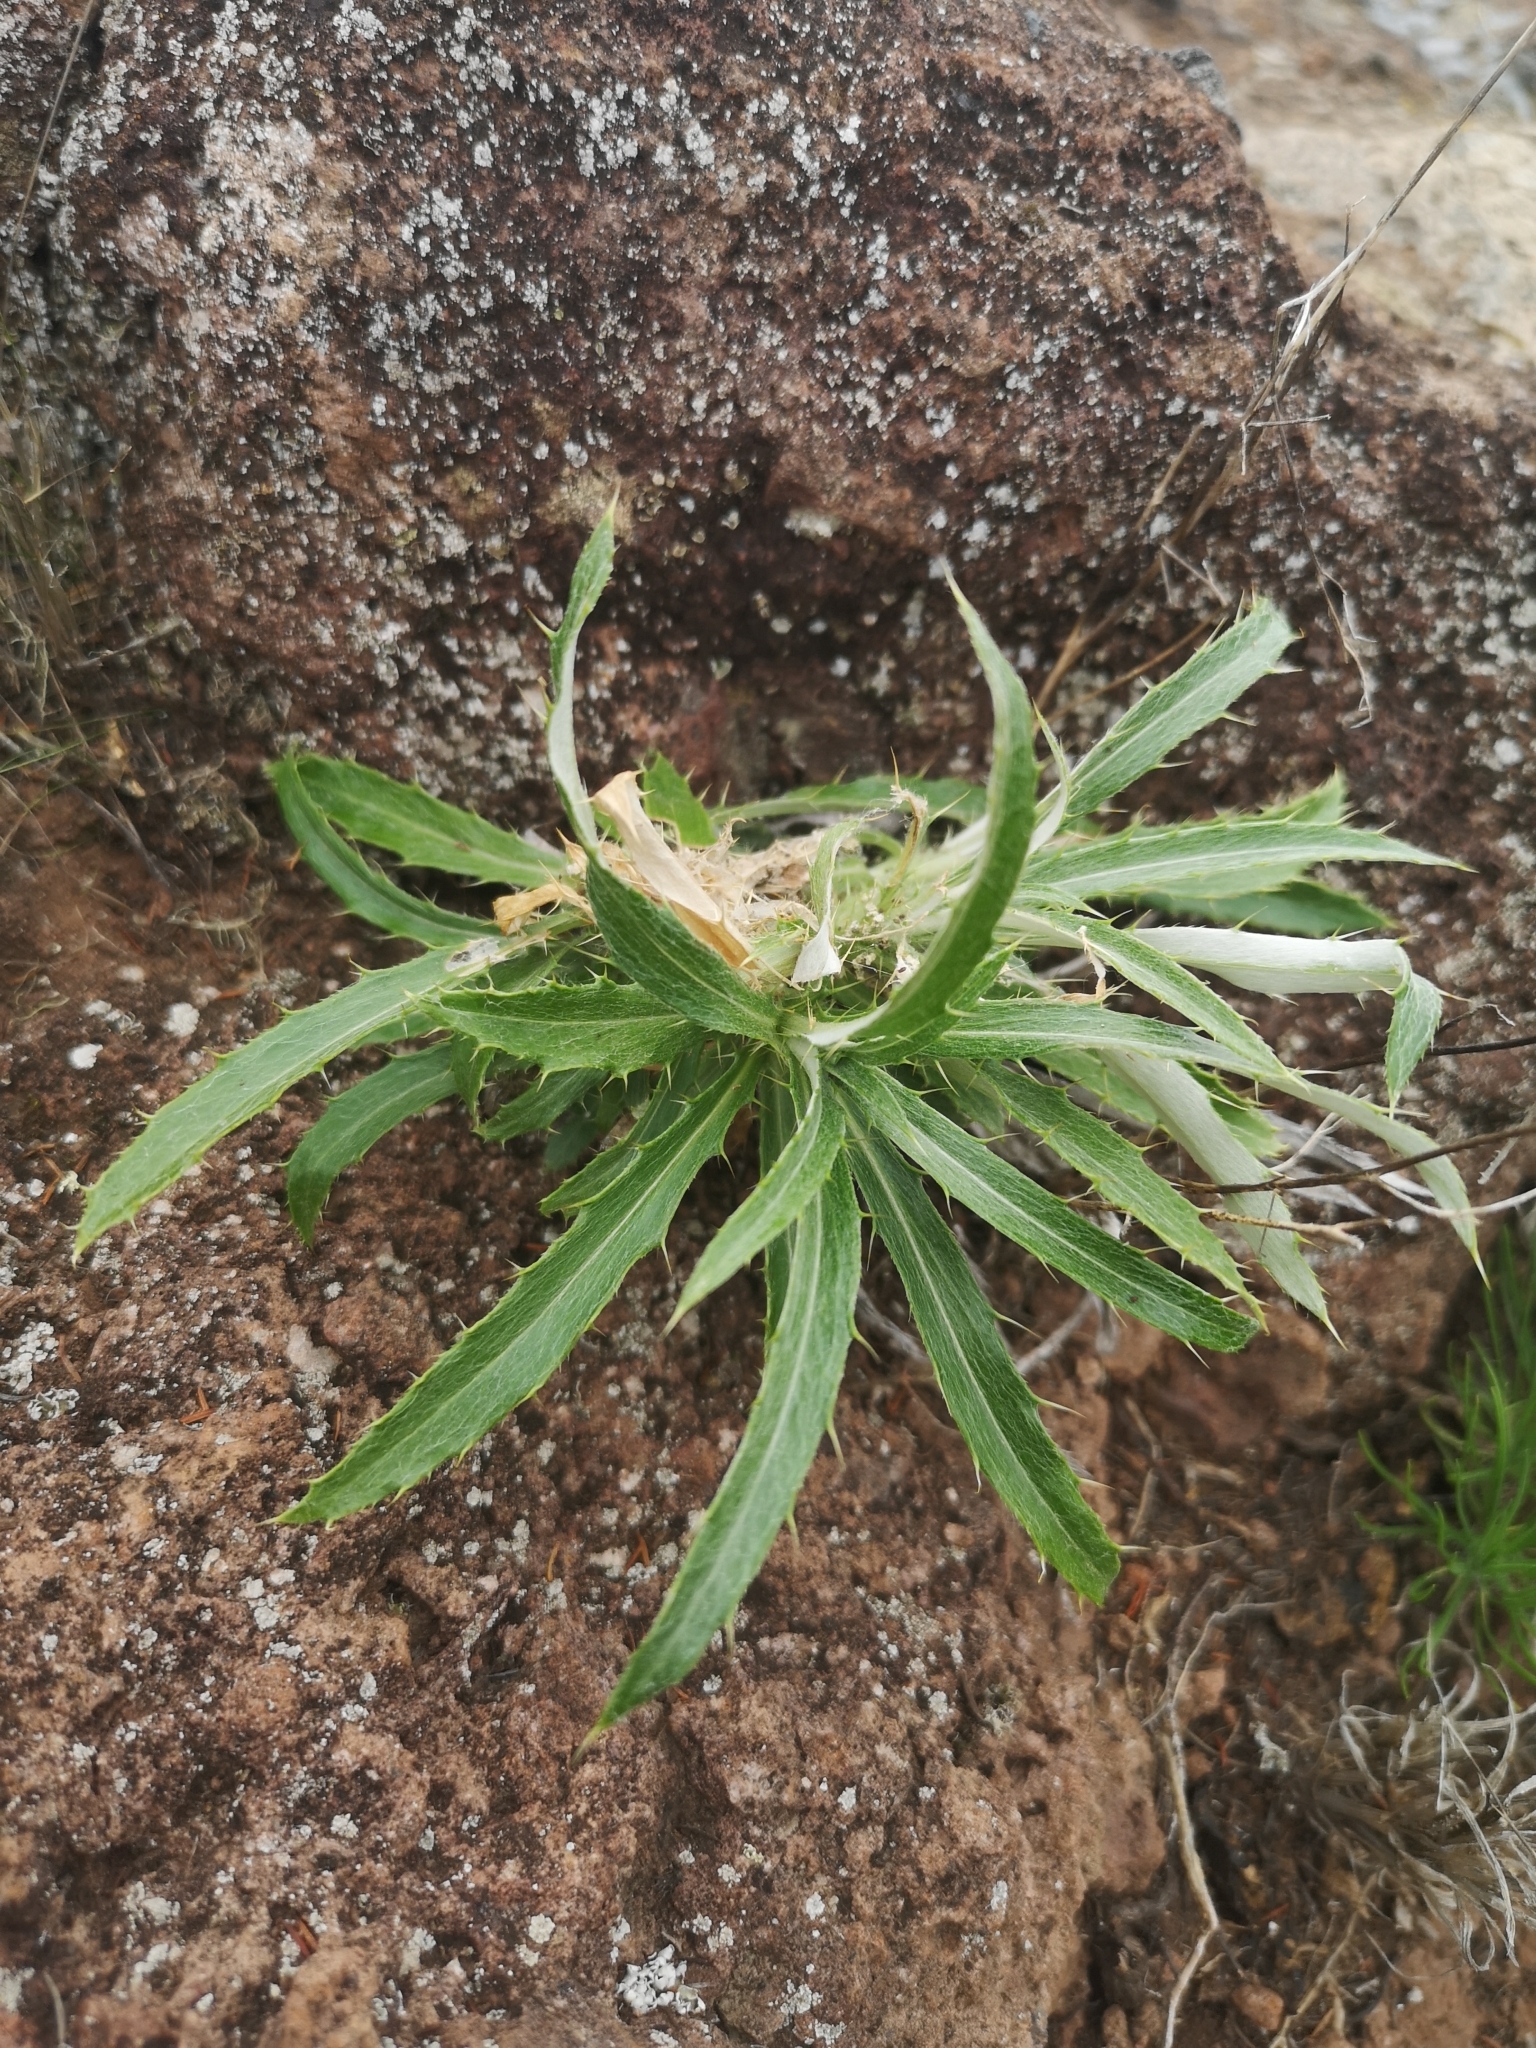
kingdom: Plantae
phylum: Tracheophyta
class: Magnoliopsida
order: Asterales
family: Asteraceae
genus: Carlina
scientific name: Carlina salicifolia
